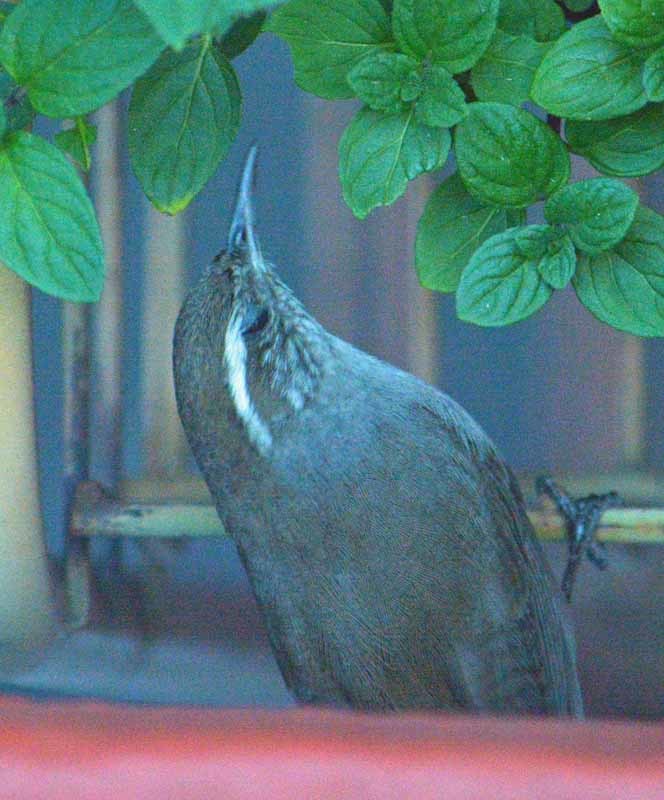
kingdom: Animalia
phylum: Chordata
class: Aves
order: Passeriformes
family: Troglodytidae
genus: Thryomanes
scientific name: Thryomanes bewickii
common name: Bewick's wren
